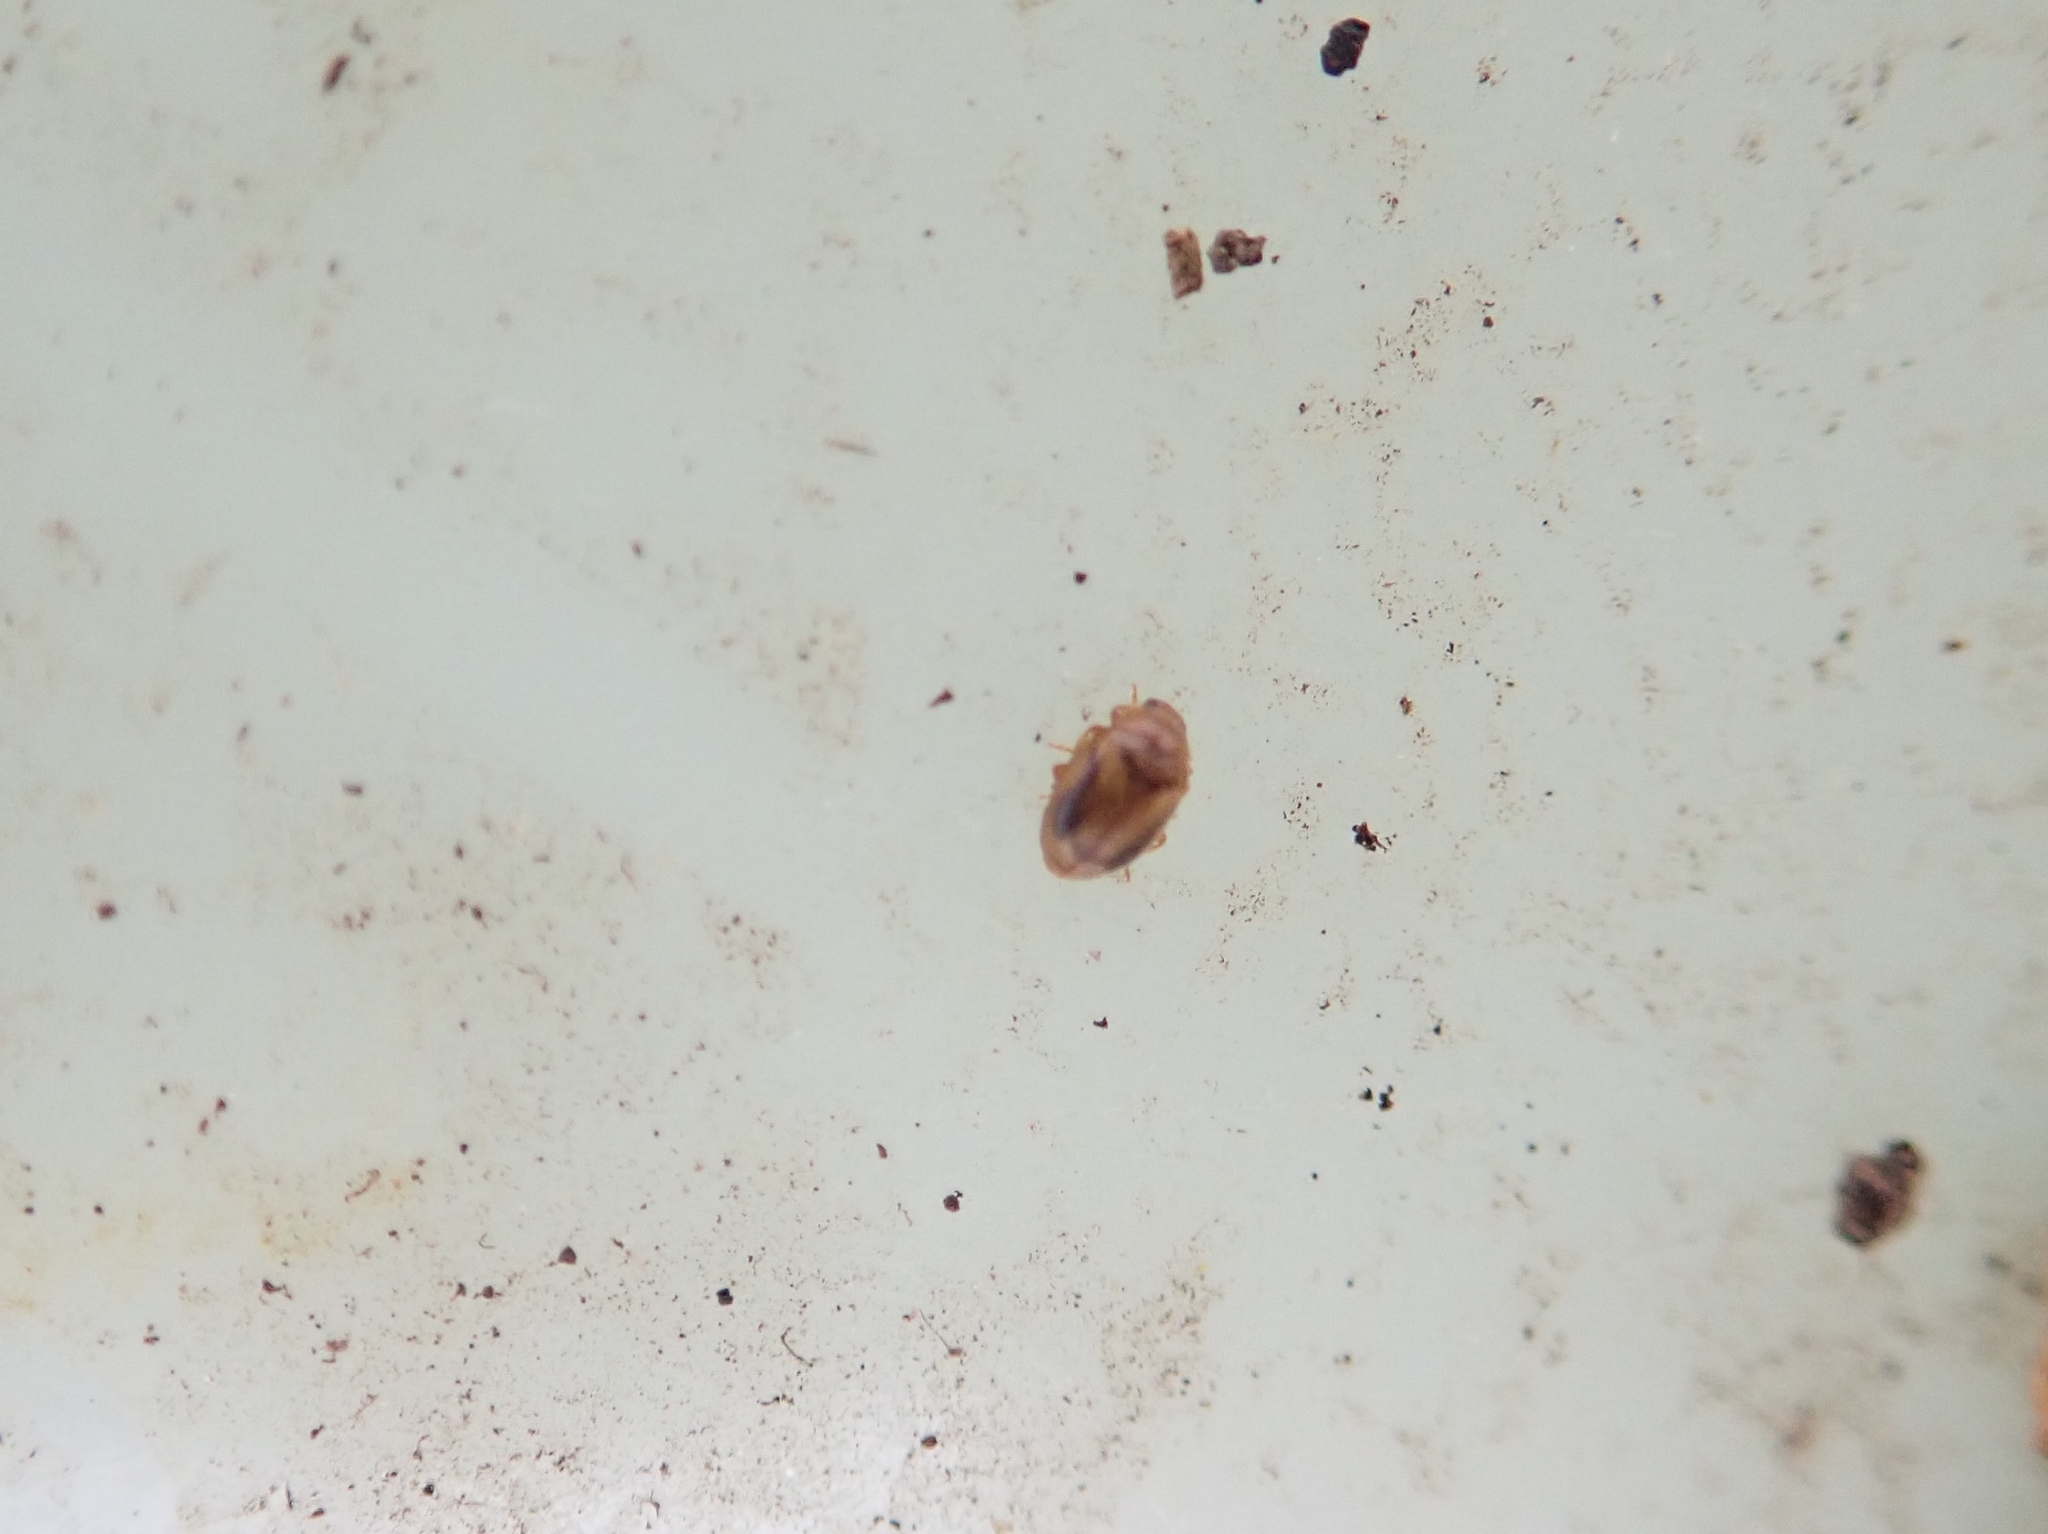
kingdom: Animalia
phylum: Arthropoda
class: Insecta
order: Coleoptera
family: Coccinellidae
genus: Rhyzobius
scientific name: Rhyzobius chrysomeloides
